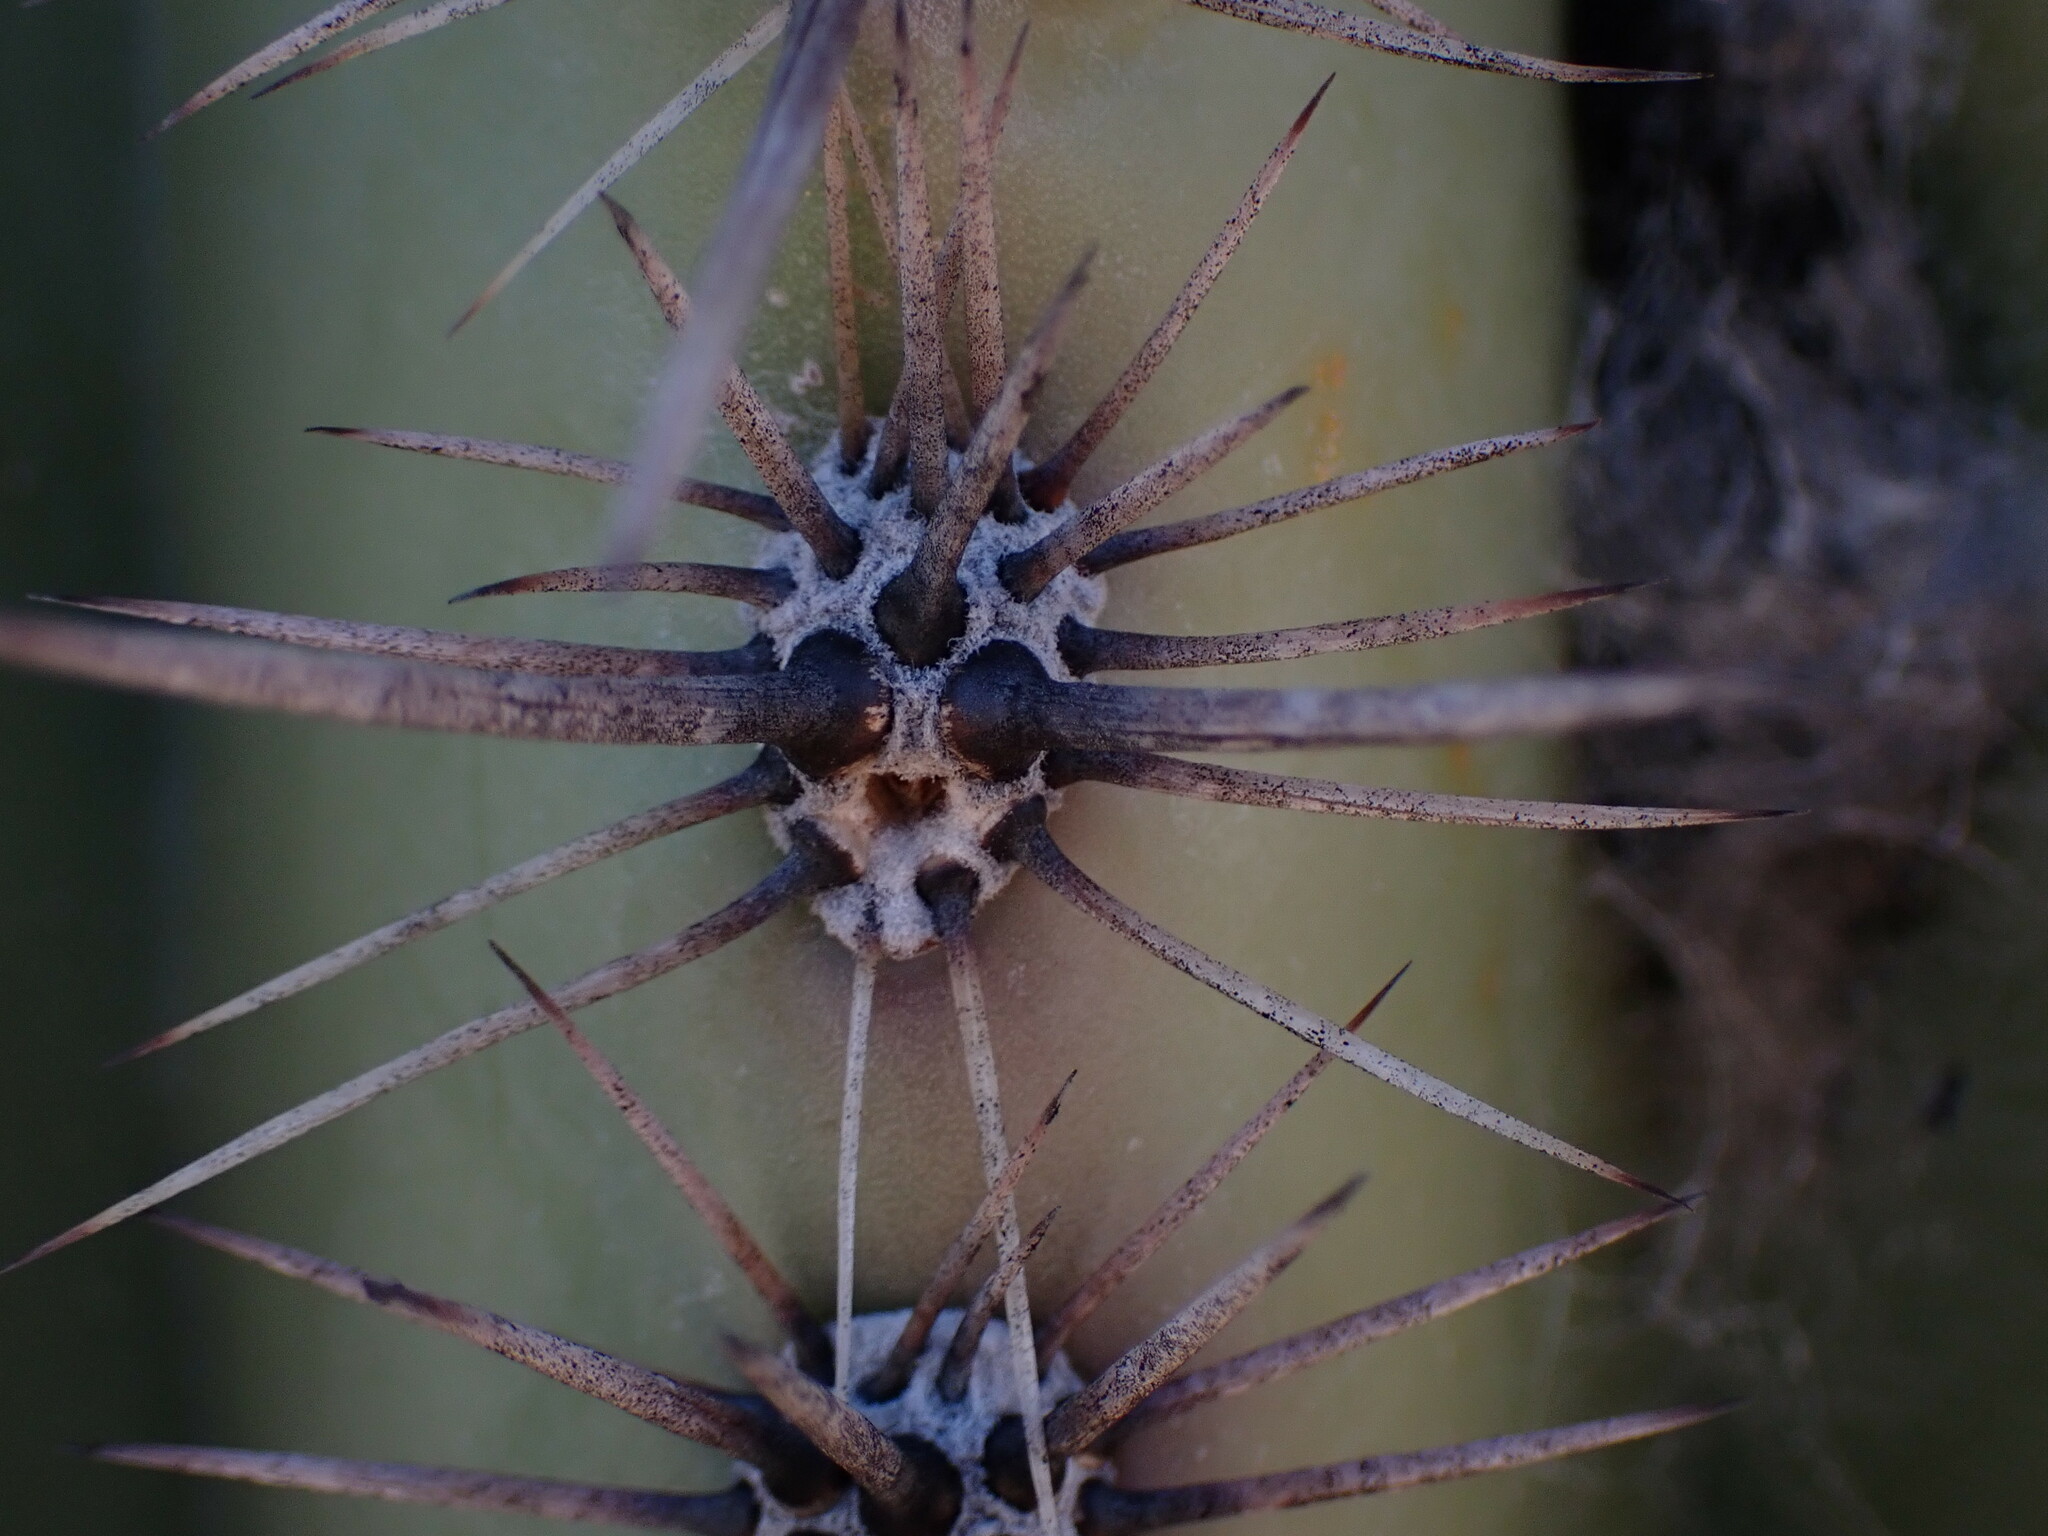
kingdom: Plantae
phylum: Tracheophyta
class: Magnoliopsida
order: Caryophyllales
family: Cactaceae
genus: Carnegiea
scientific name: Carnegiea gigantea
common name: Saguaro
